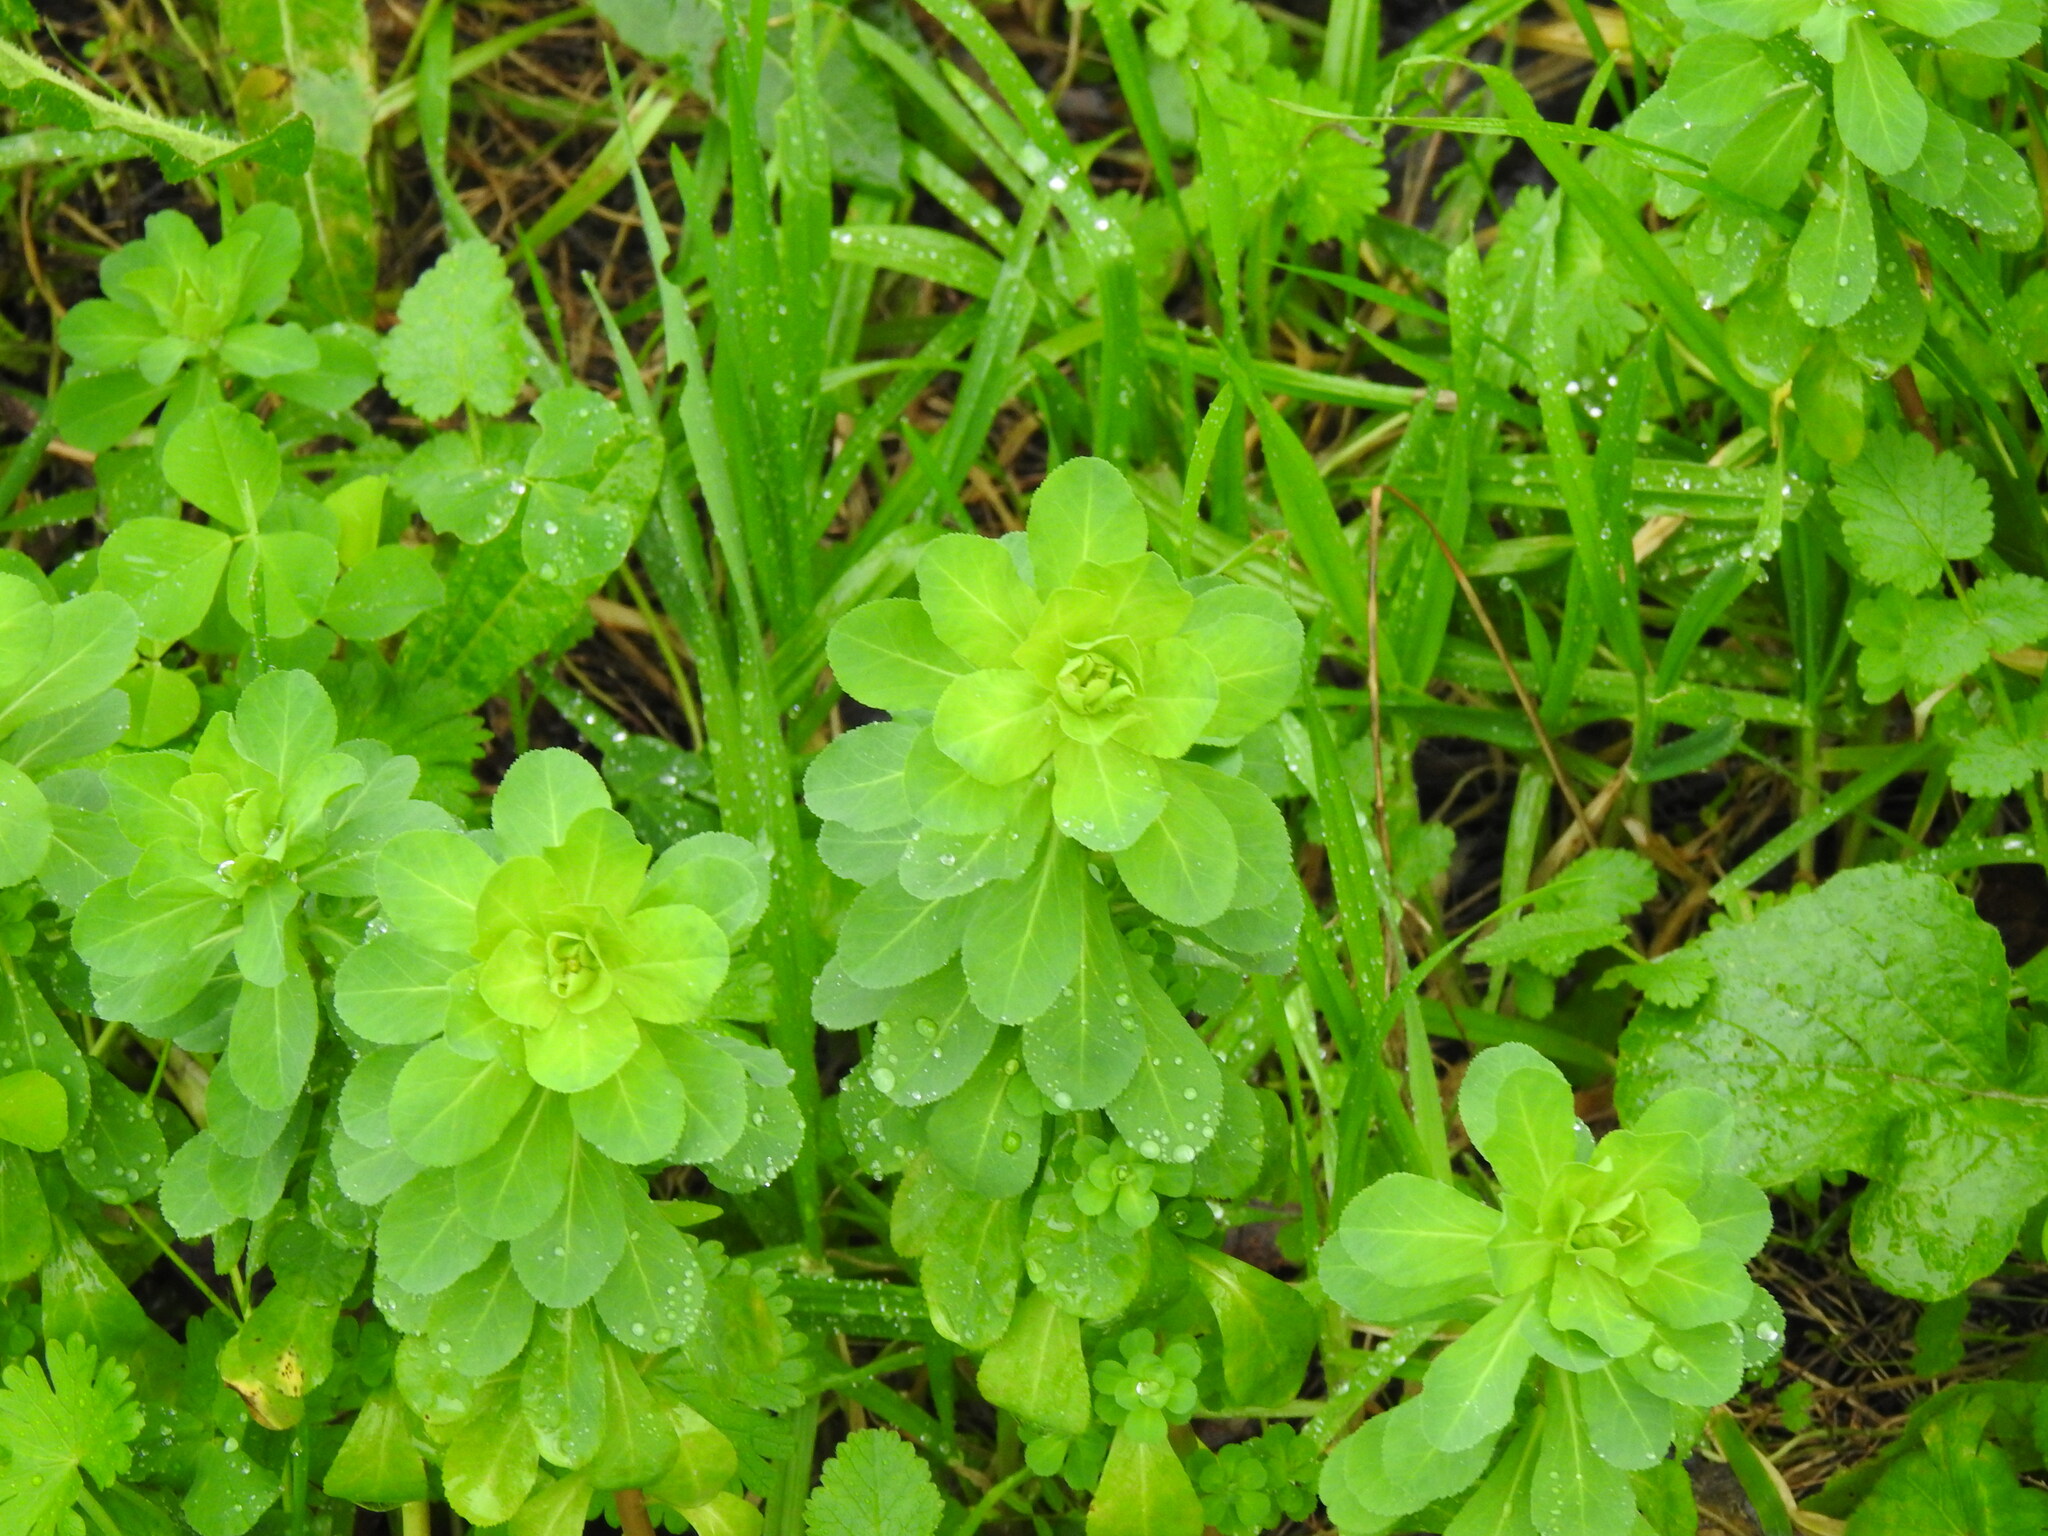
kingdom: Plantae
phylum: Tracheophyta
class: Magnoliopsida
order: Malpighiales
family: Euphorbiaceae
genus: Euphorbia
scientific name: Euphorbia helioscopia
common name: Sun spurge
